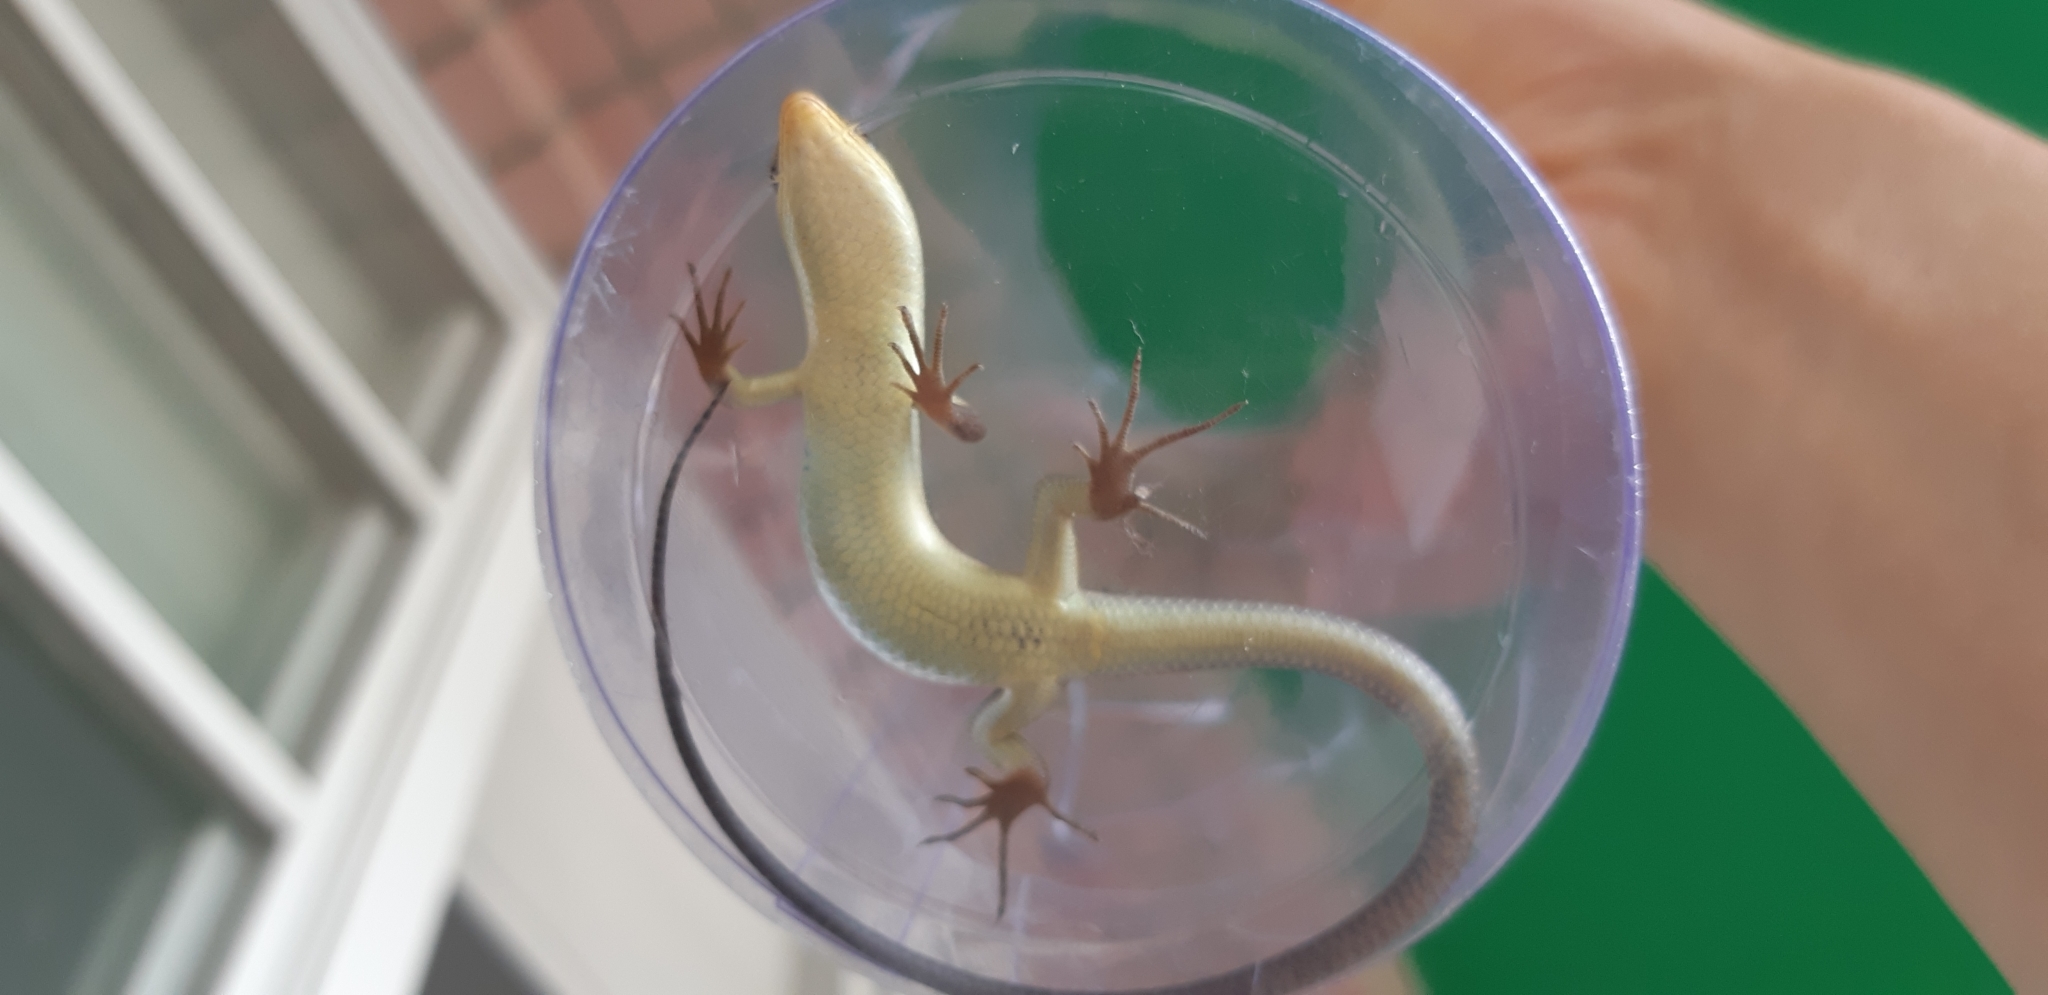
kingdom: Animalia
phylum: Chordata
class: Squamata
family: Scincidae
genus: Eutropis
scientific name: Eutropis longicaudata
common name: Long-tailed sun skink
